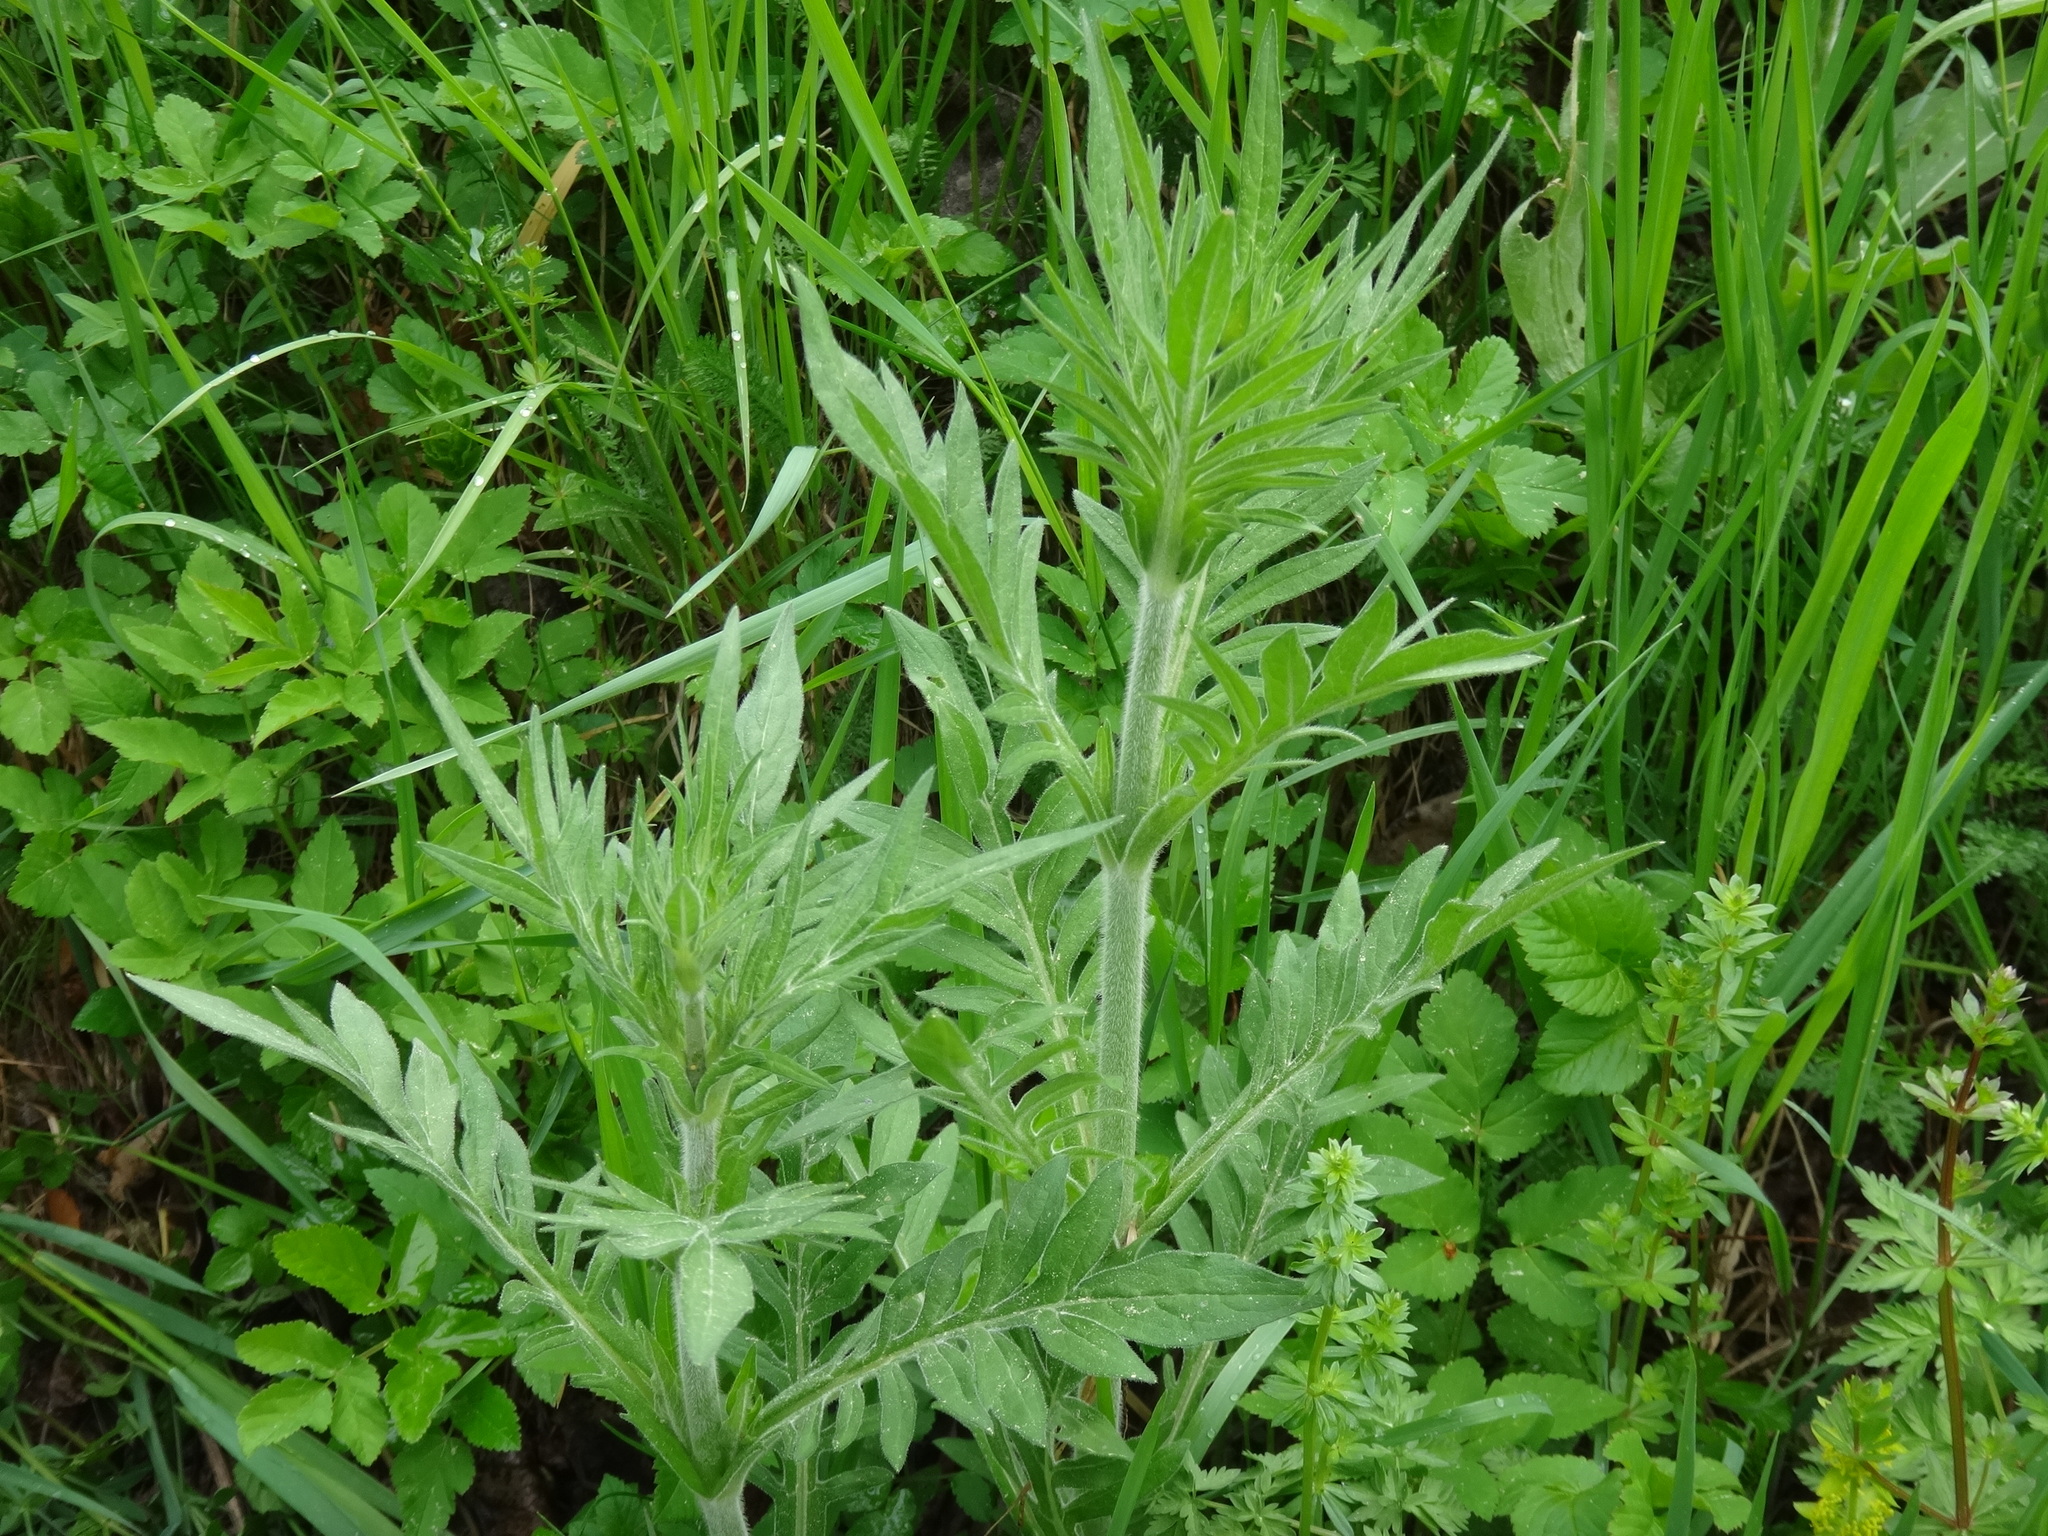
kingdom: Plantae
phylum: Tracheophyta
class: Magnoliopsida
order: Dipsacales
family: Caprifoliaceae
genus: Knautia
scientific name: Knautia arvensis
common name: Field scabiosa
